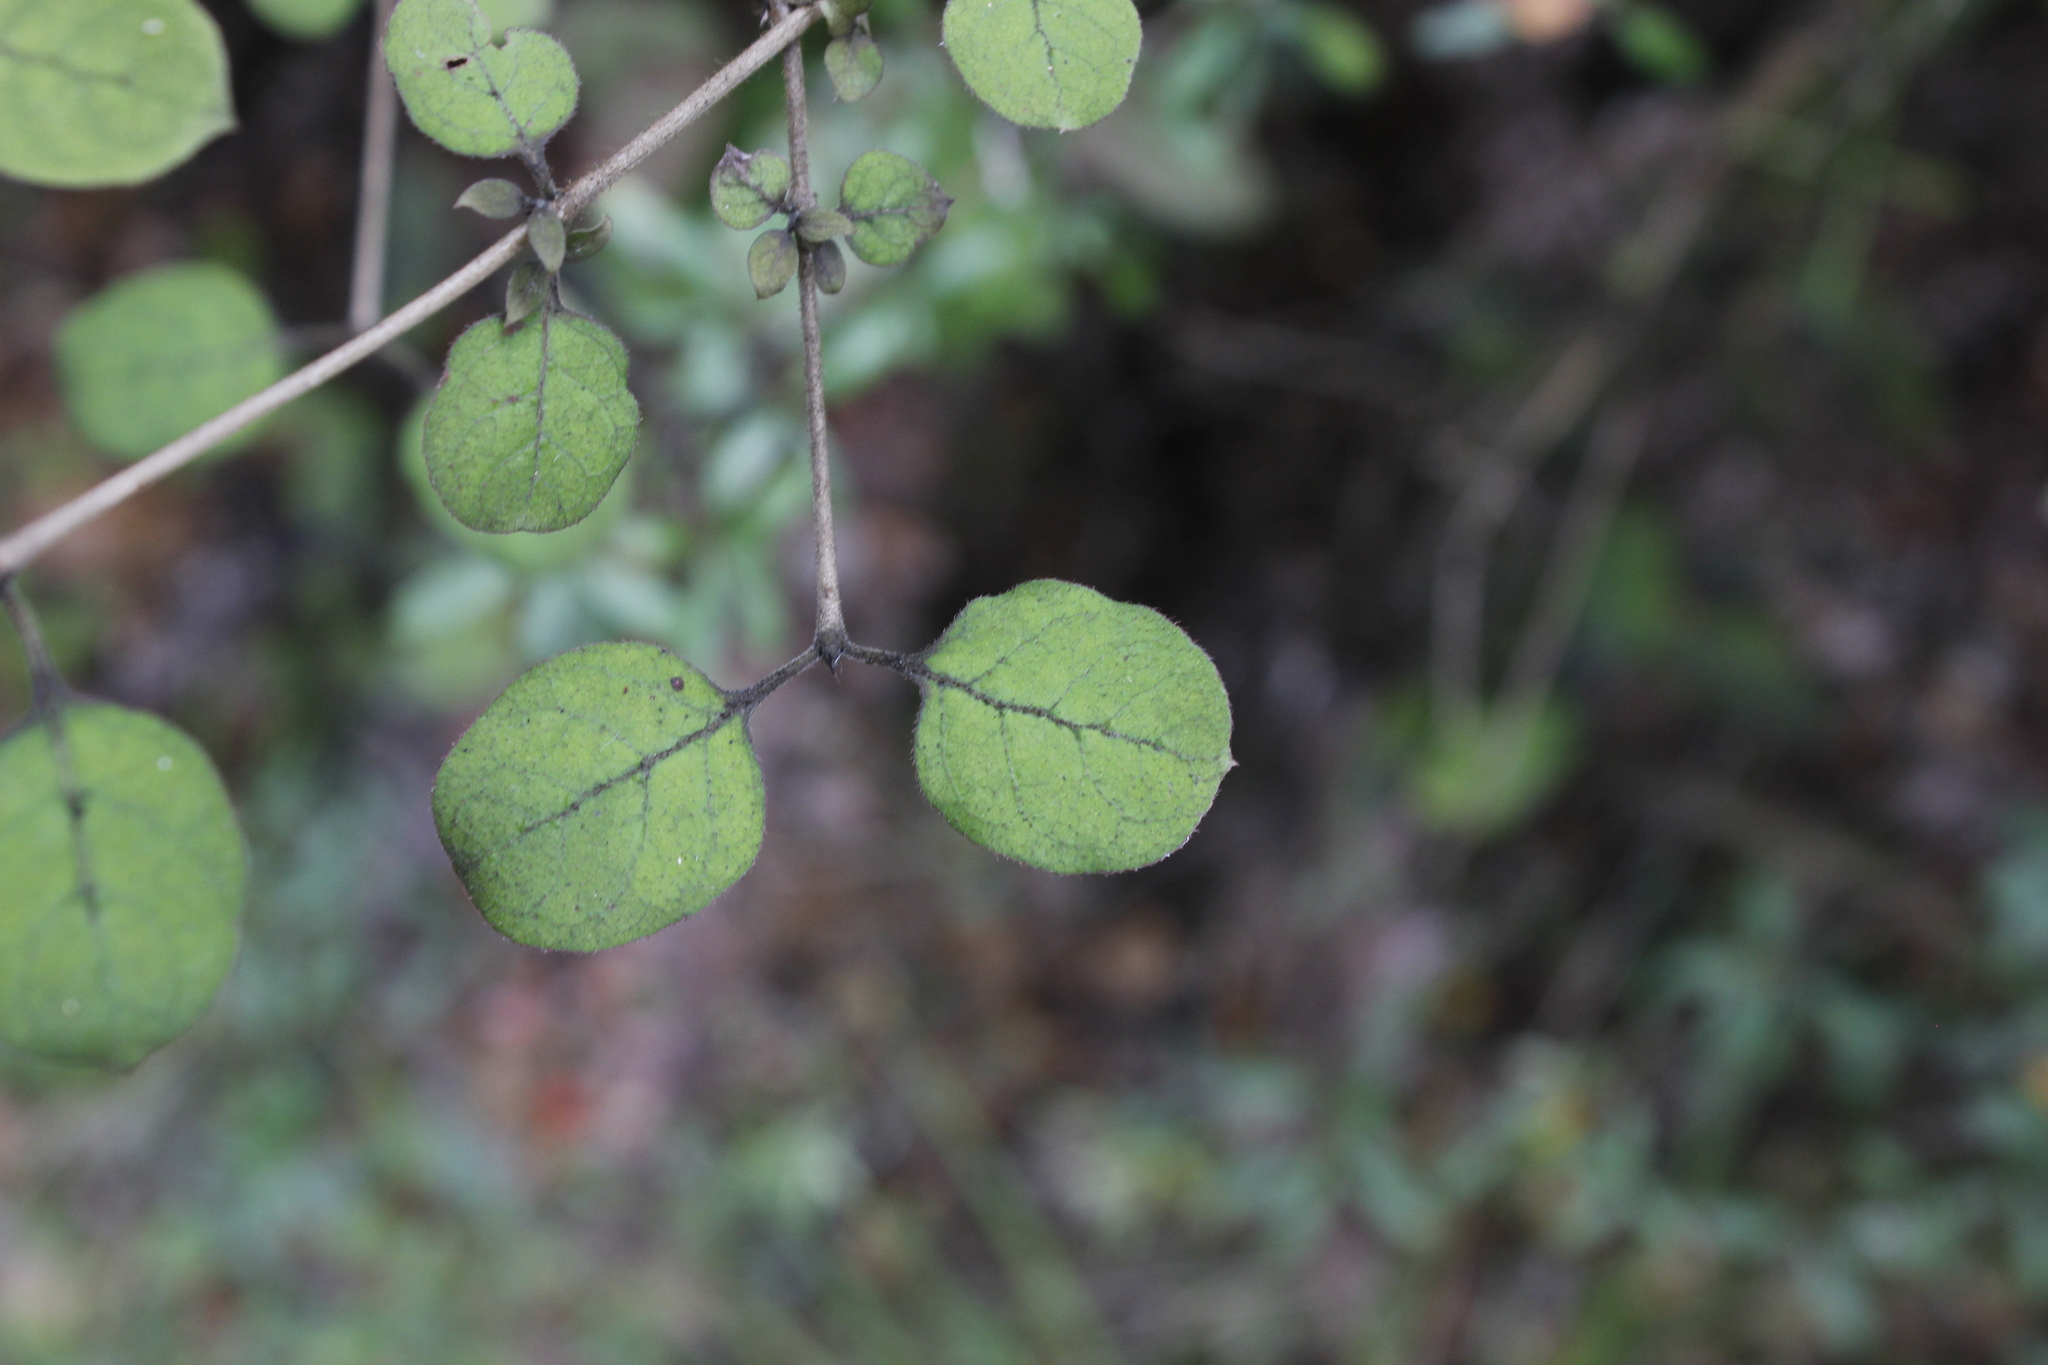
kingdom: Plantae
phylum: Tracheophyta
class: Magnoliopsida
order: Gentianales
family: Rubiaceae
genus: Coprosma
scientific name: Coprosma rotundifolia
